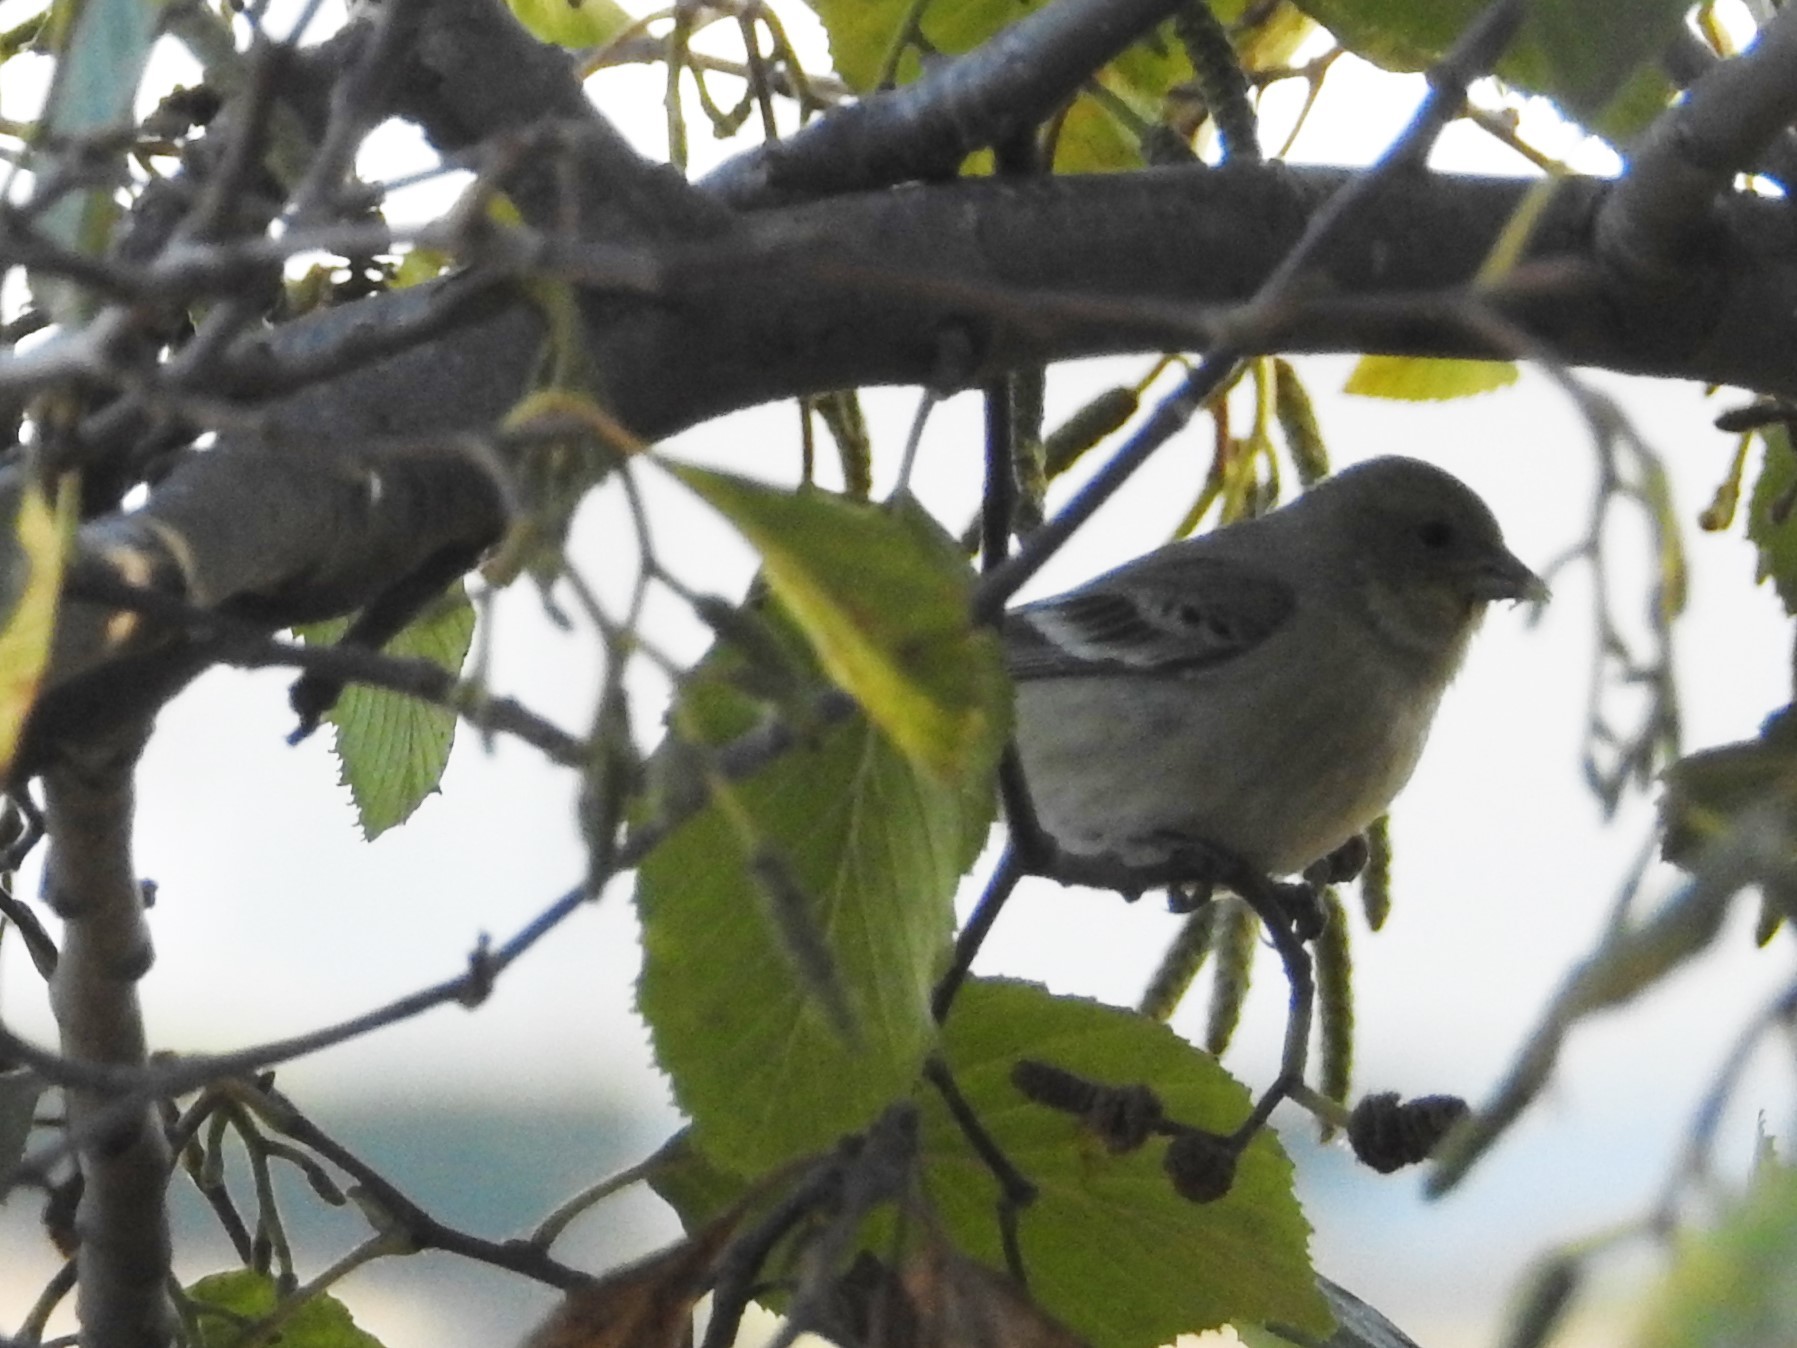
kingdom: Animalia
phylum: Chordata
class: Aves
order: Passeriformes
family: Fringillidae
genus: Spinus
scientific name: Spinus psaltria
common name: Lesser goldfinch
